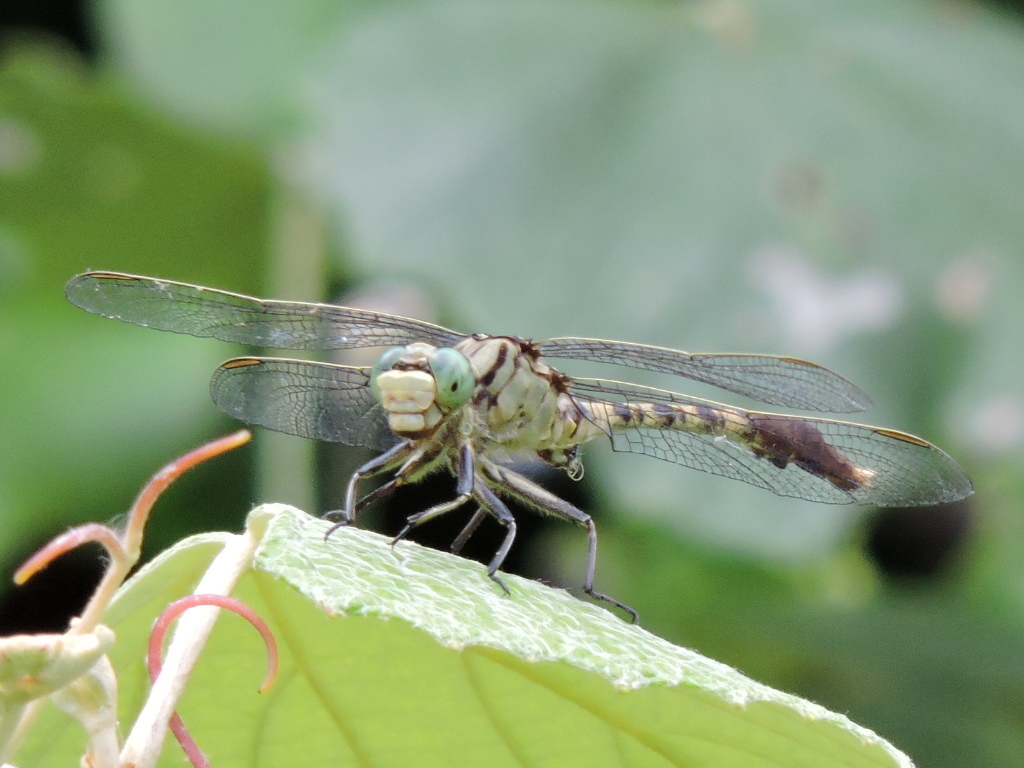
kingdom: Animalia
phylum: Arthropoda
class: Insecta
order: Odonata
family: Gomphidae
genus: Arigomphus
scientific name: Arigomphus submedianus
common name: Jade clubtail
